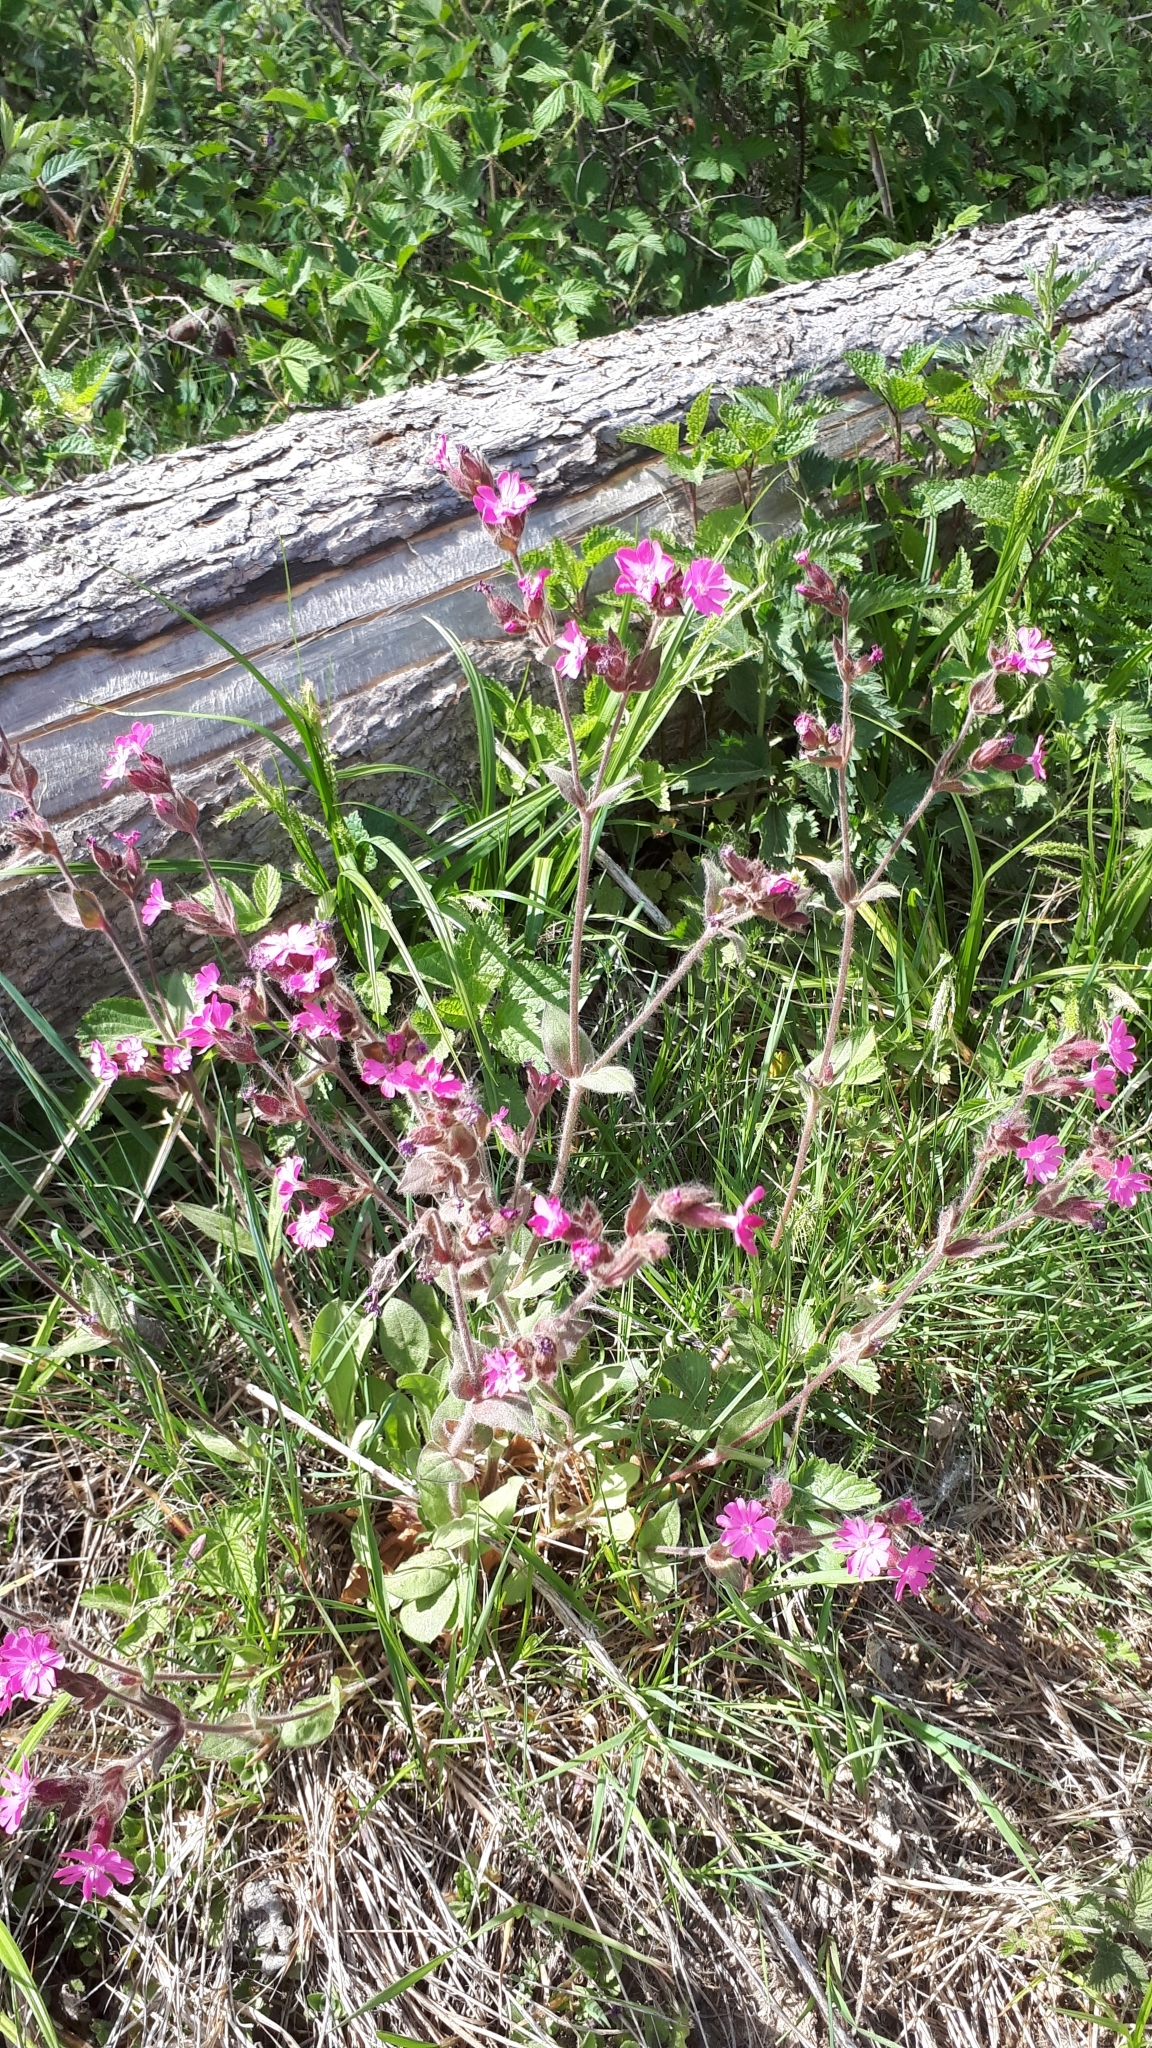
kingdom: Plantae
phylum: Tracheophyta
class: Magnoliopsida
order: Caryophyllales
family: Caryophyllaceae
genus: Silene
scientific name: Silene dioica
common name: Red campion
